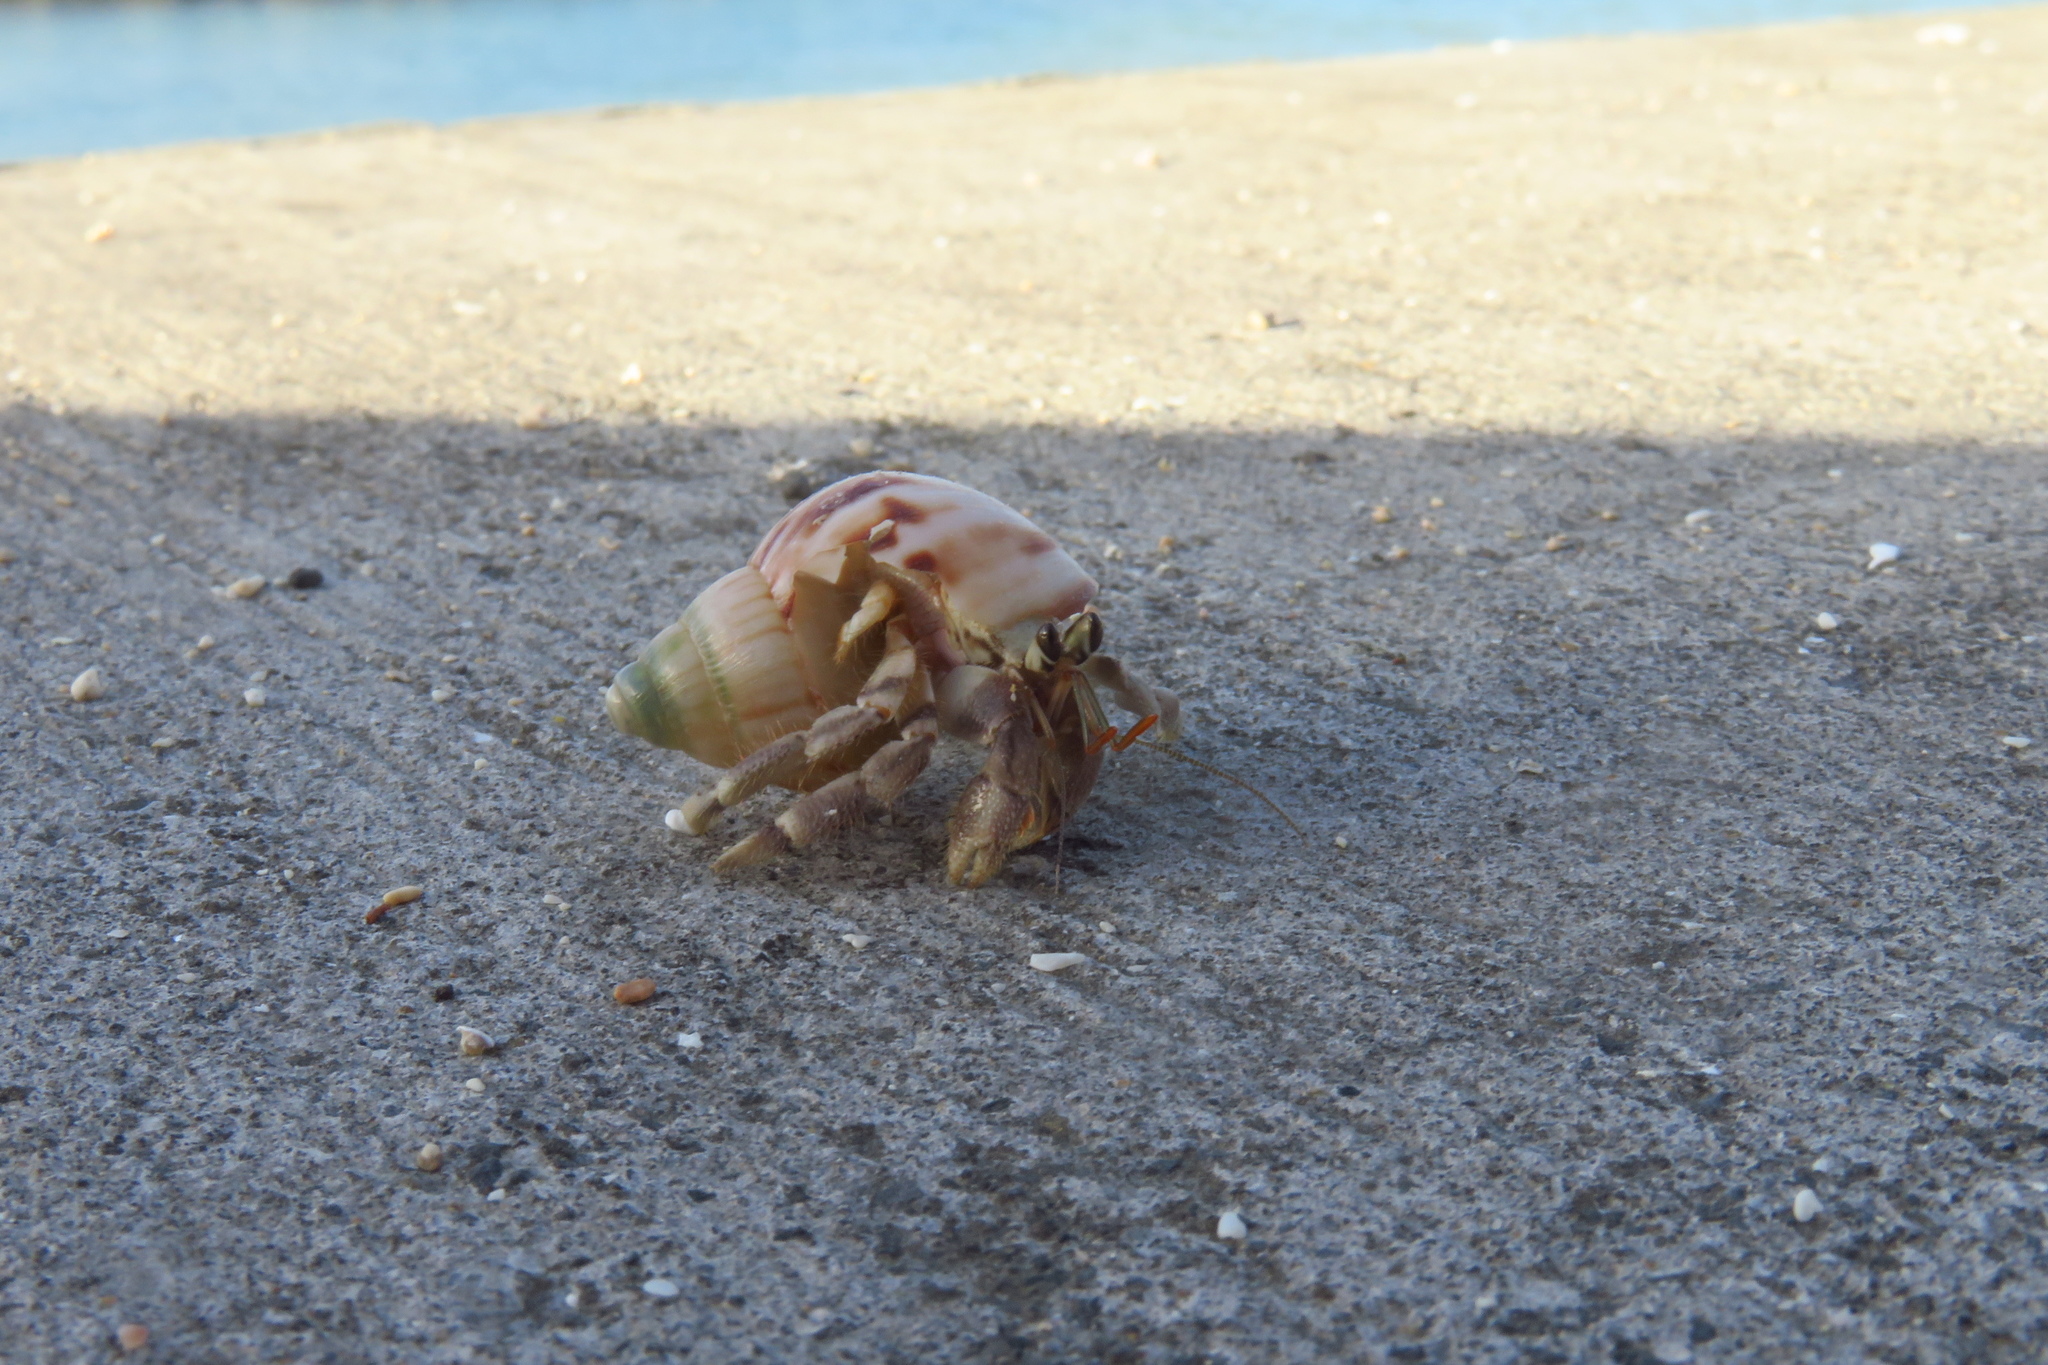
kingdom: Animalia
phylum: Arthropoda
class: Malacostraca
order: Decapoda
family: Coenobitidae
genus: Coenobita
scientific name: Coenobita rugosus
